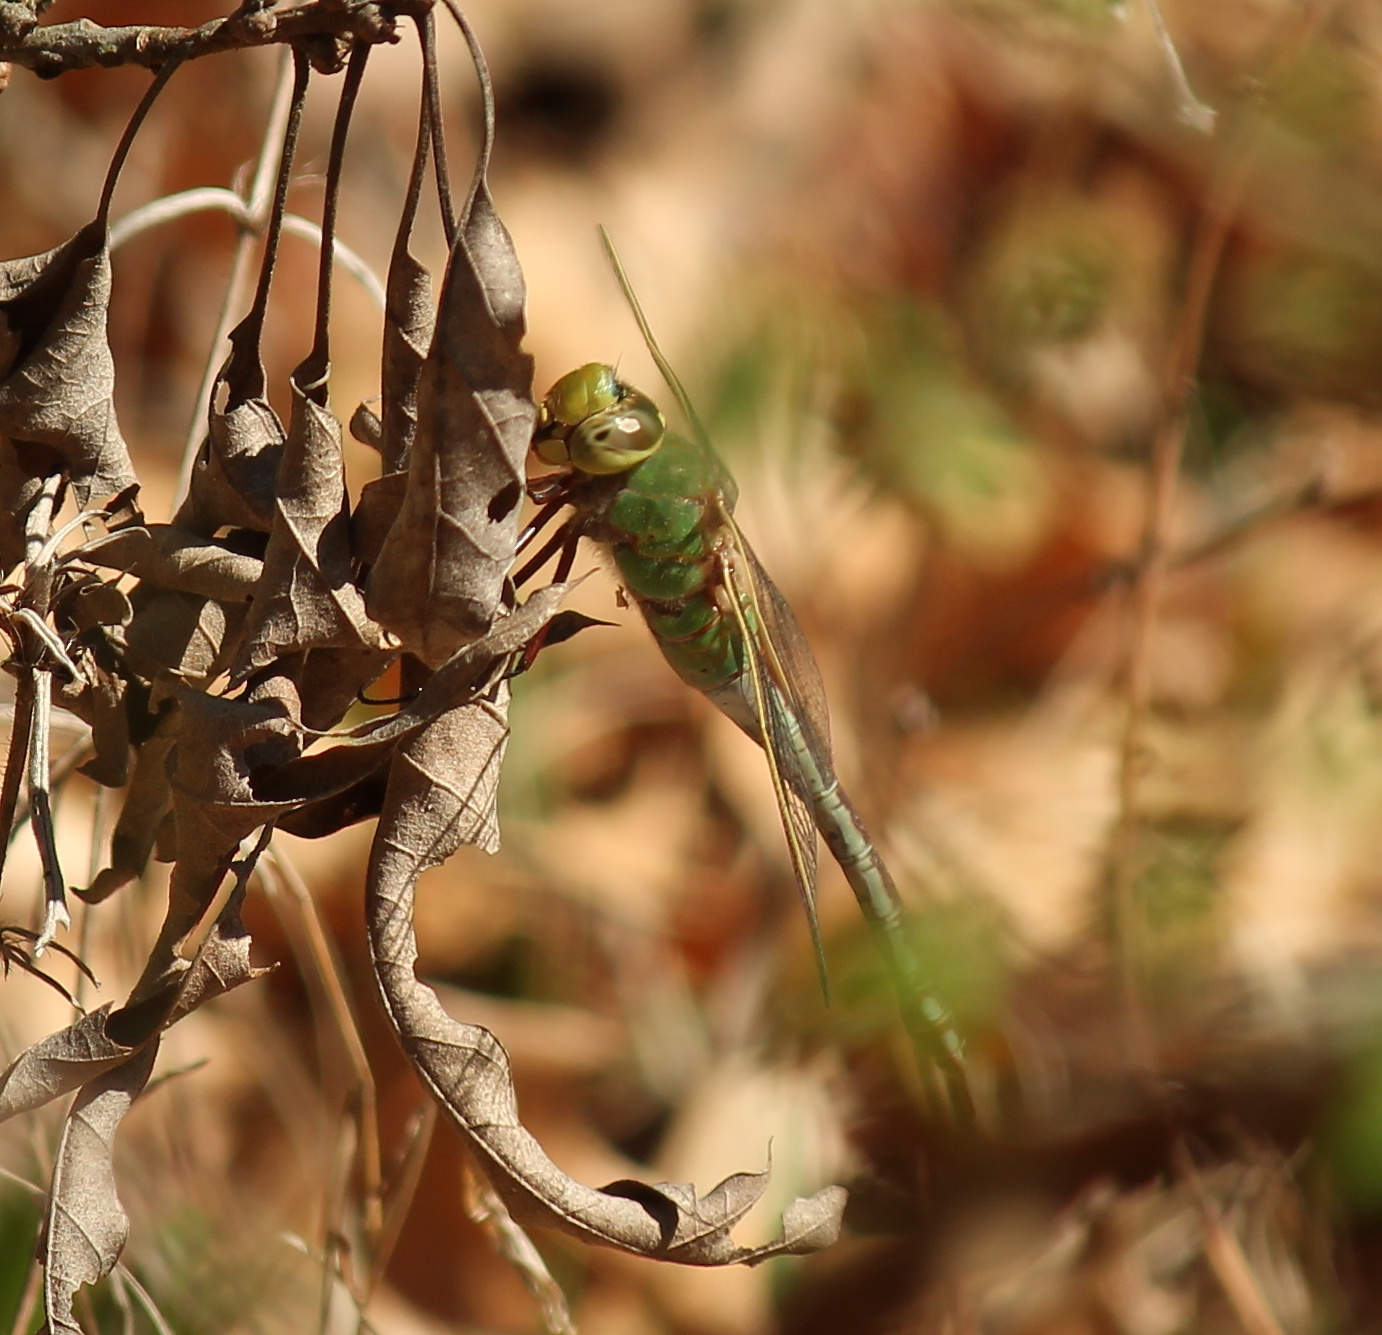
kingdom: Animalia
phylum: Arthropoda
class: Insecta
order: Odonata
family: Aeshnidae
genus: Anax
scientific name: Anax junius
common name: Common green darner
